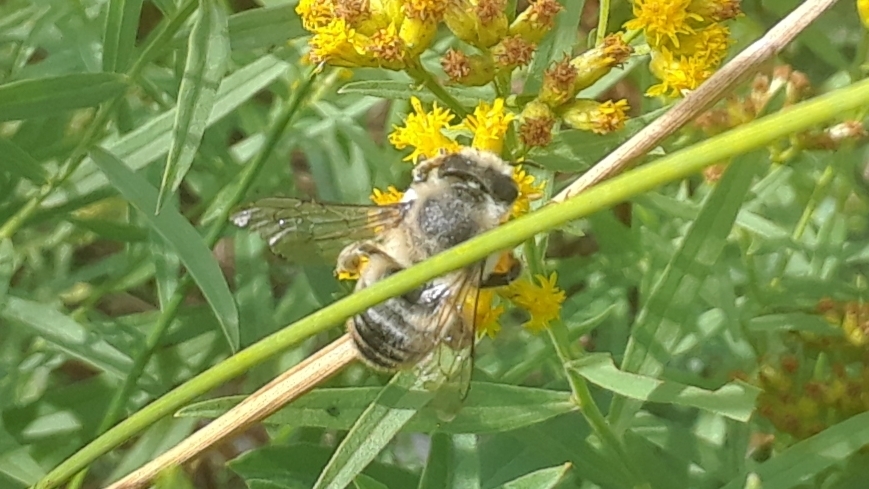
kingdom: Animalia
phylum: Arthropoda
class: Insecta
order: Hymenoptera
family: Megachilidae
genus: Megachile
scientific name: Megachile latimanus
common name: Leafcutting bee
